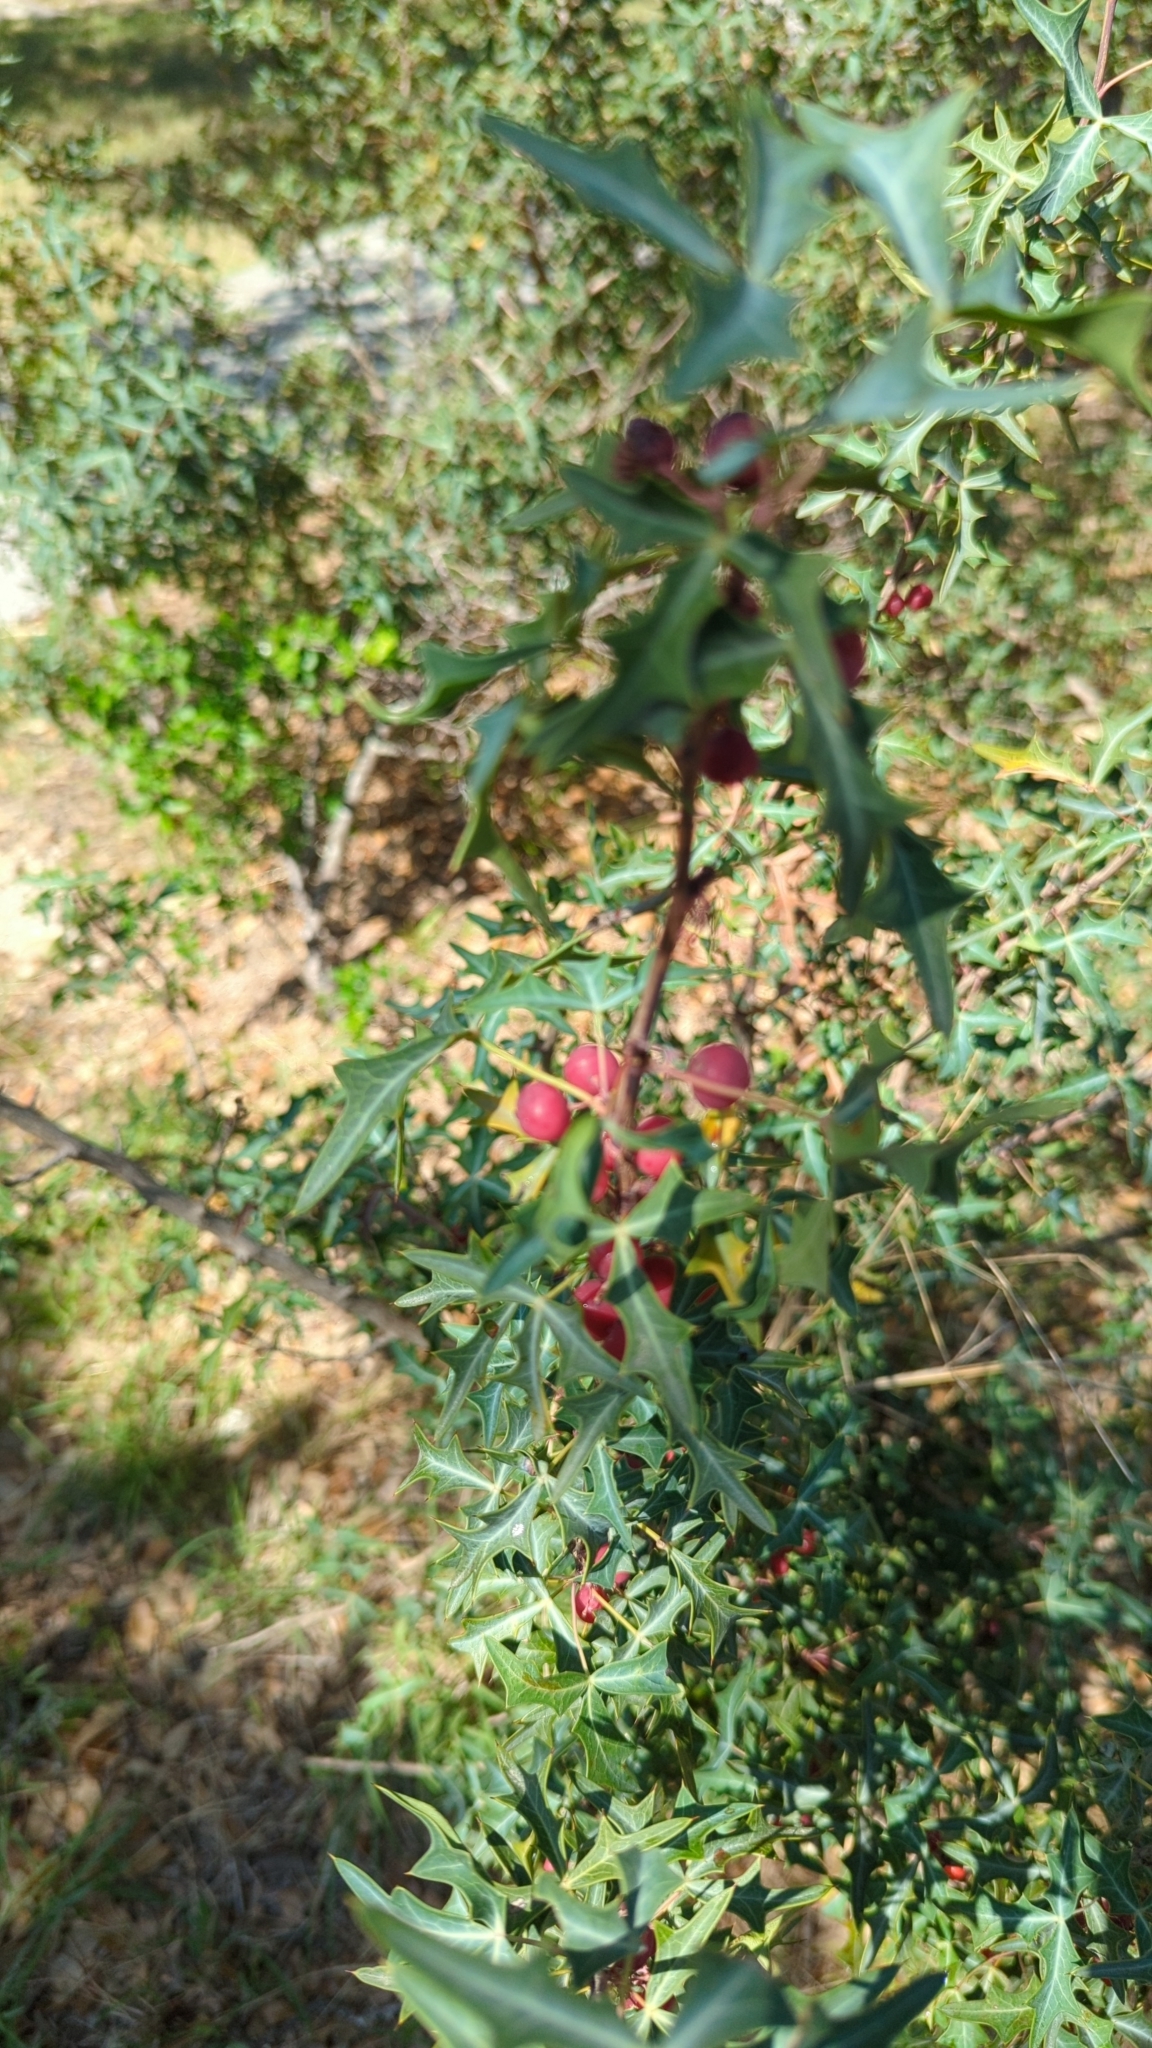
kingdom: Plantae
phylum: Tracheophyta
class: Magnoliopsida
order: Ranunculales
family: Berberidaceae
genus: Alloberberis
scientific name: Alloberberis trifoliolata
